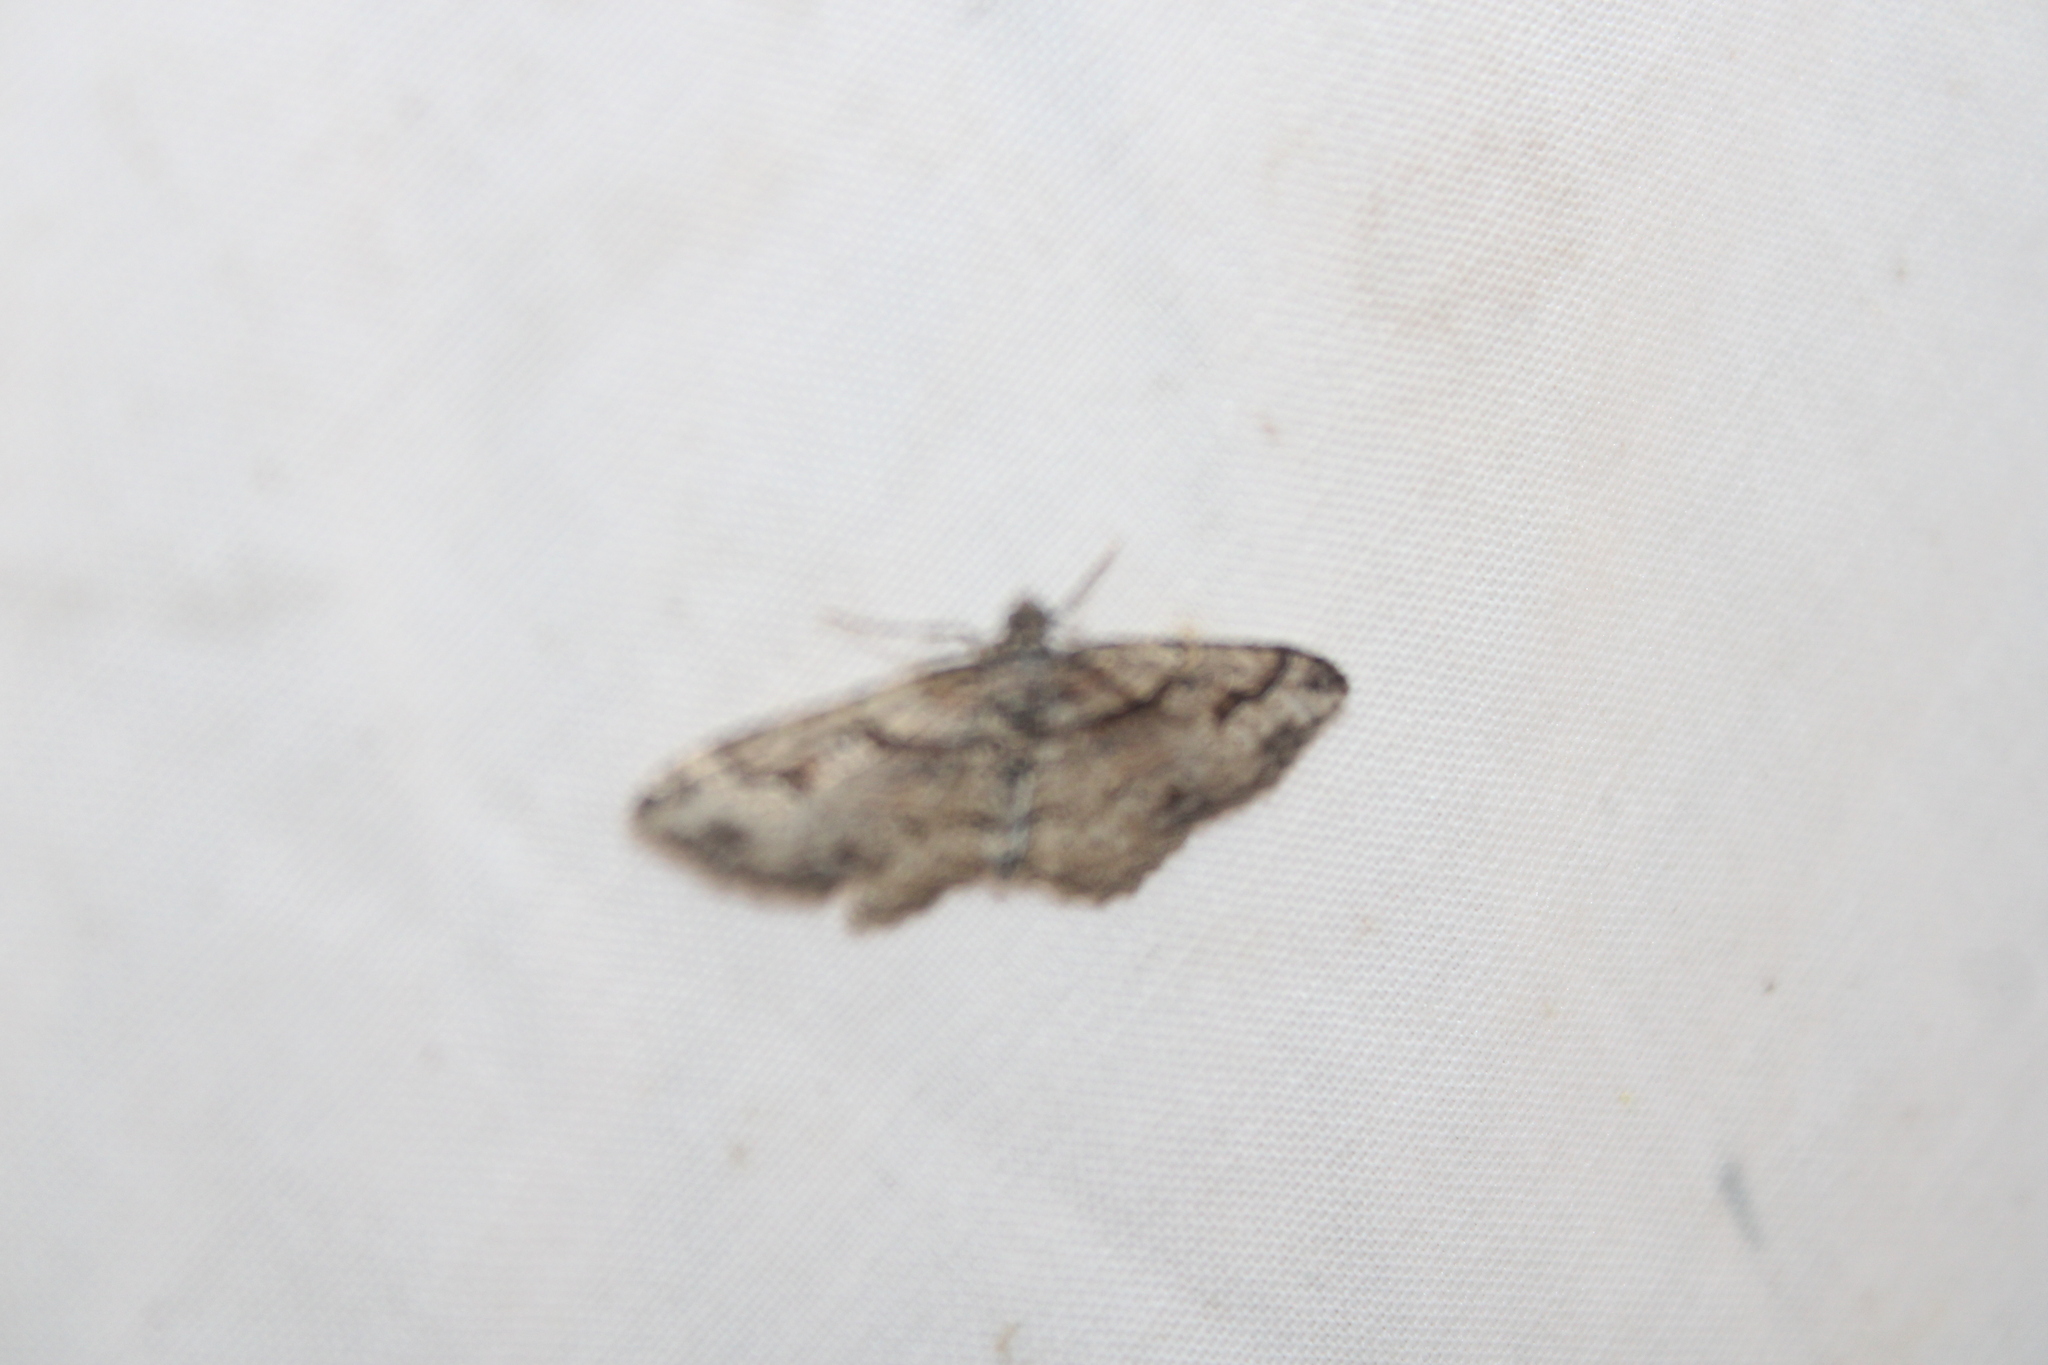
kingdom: Animalia
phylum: Arthropoda
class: Insecta
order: Lepidoptera
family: Geometridae
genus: Costaconvexa
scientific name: Costaconvexa centrostrigaria
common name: Bent-line carpet
